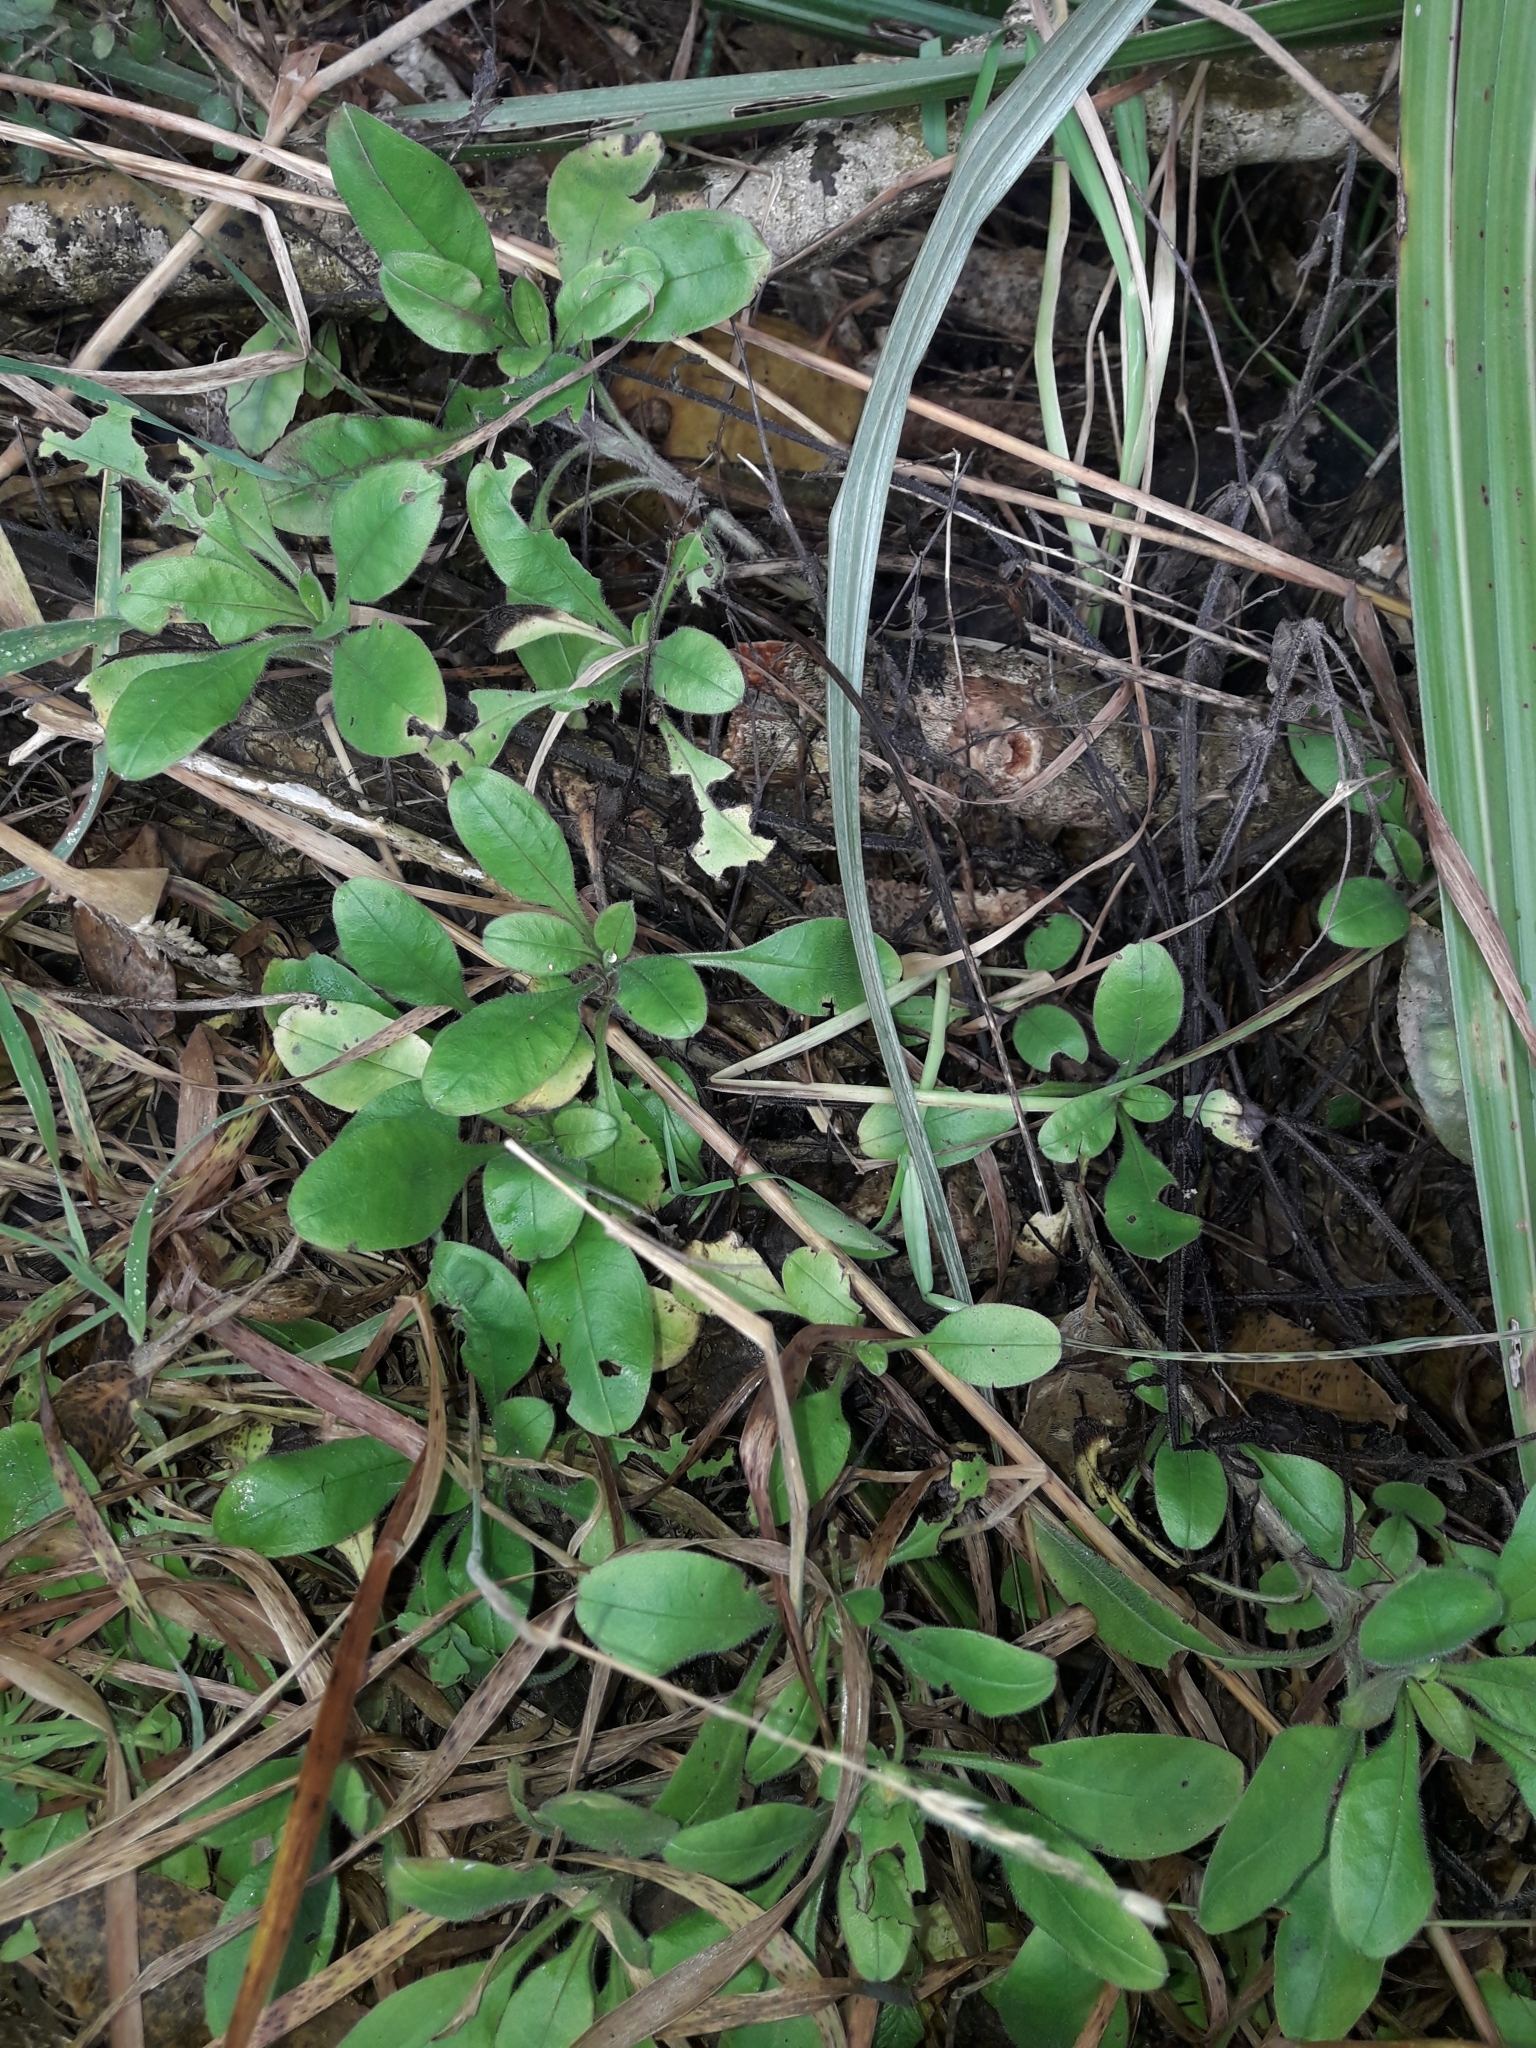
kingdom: Plantae
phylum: Tracheophyta
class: Magnoliopsida
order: Boraginales
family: Boraginaceae
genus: Myosotis
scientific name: Myosotis sylvatica
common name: Wood forget-me-not
